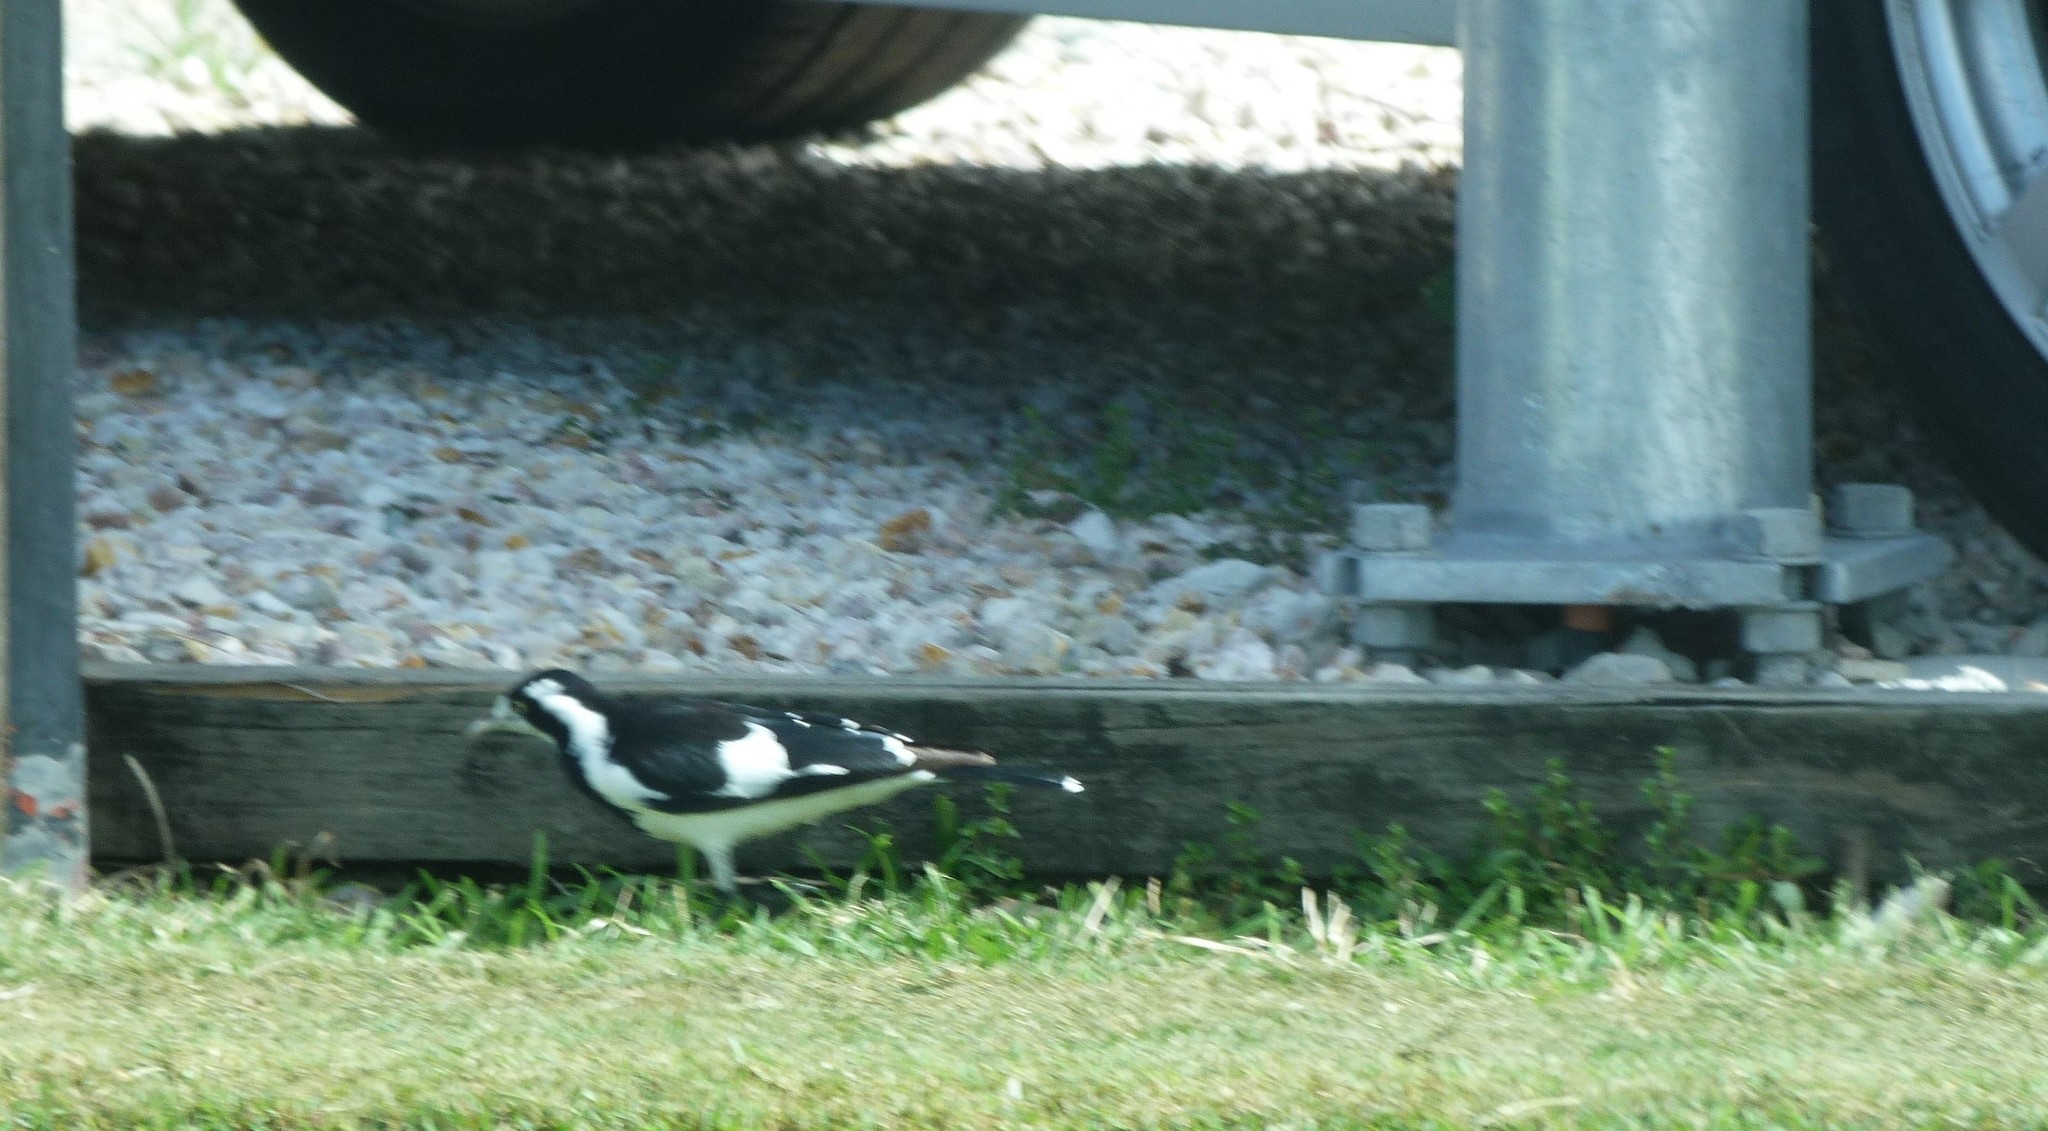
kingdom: Animalia
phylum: Chordata
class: Aves
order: Passeriformes
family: Monarchidae
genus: Grallina
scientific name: Grallina cyanoleuca
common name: Magpie-lark
